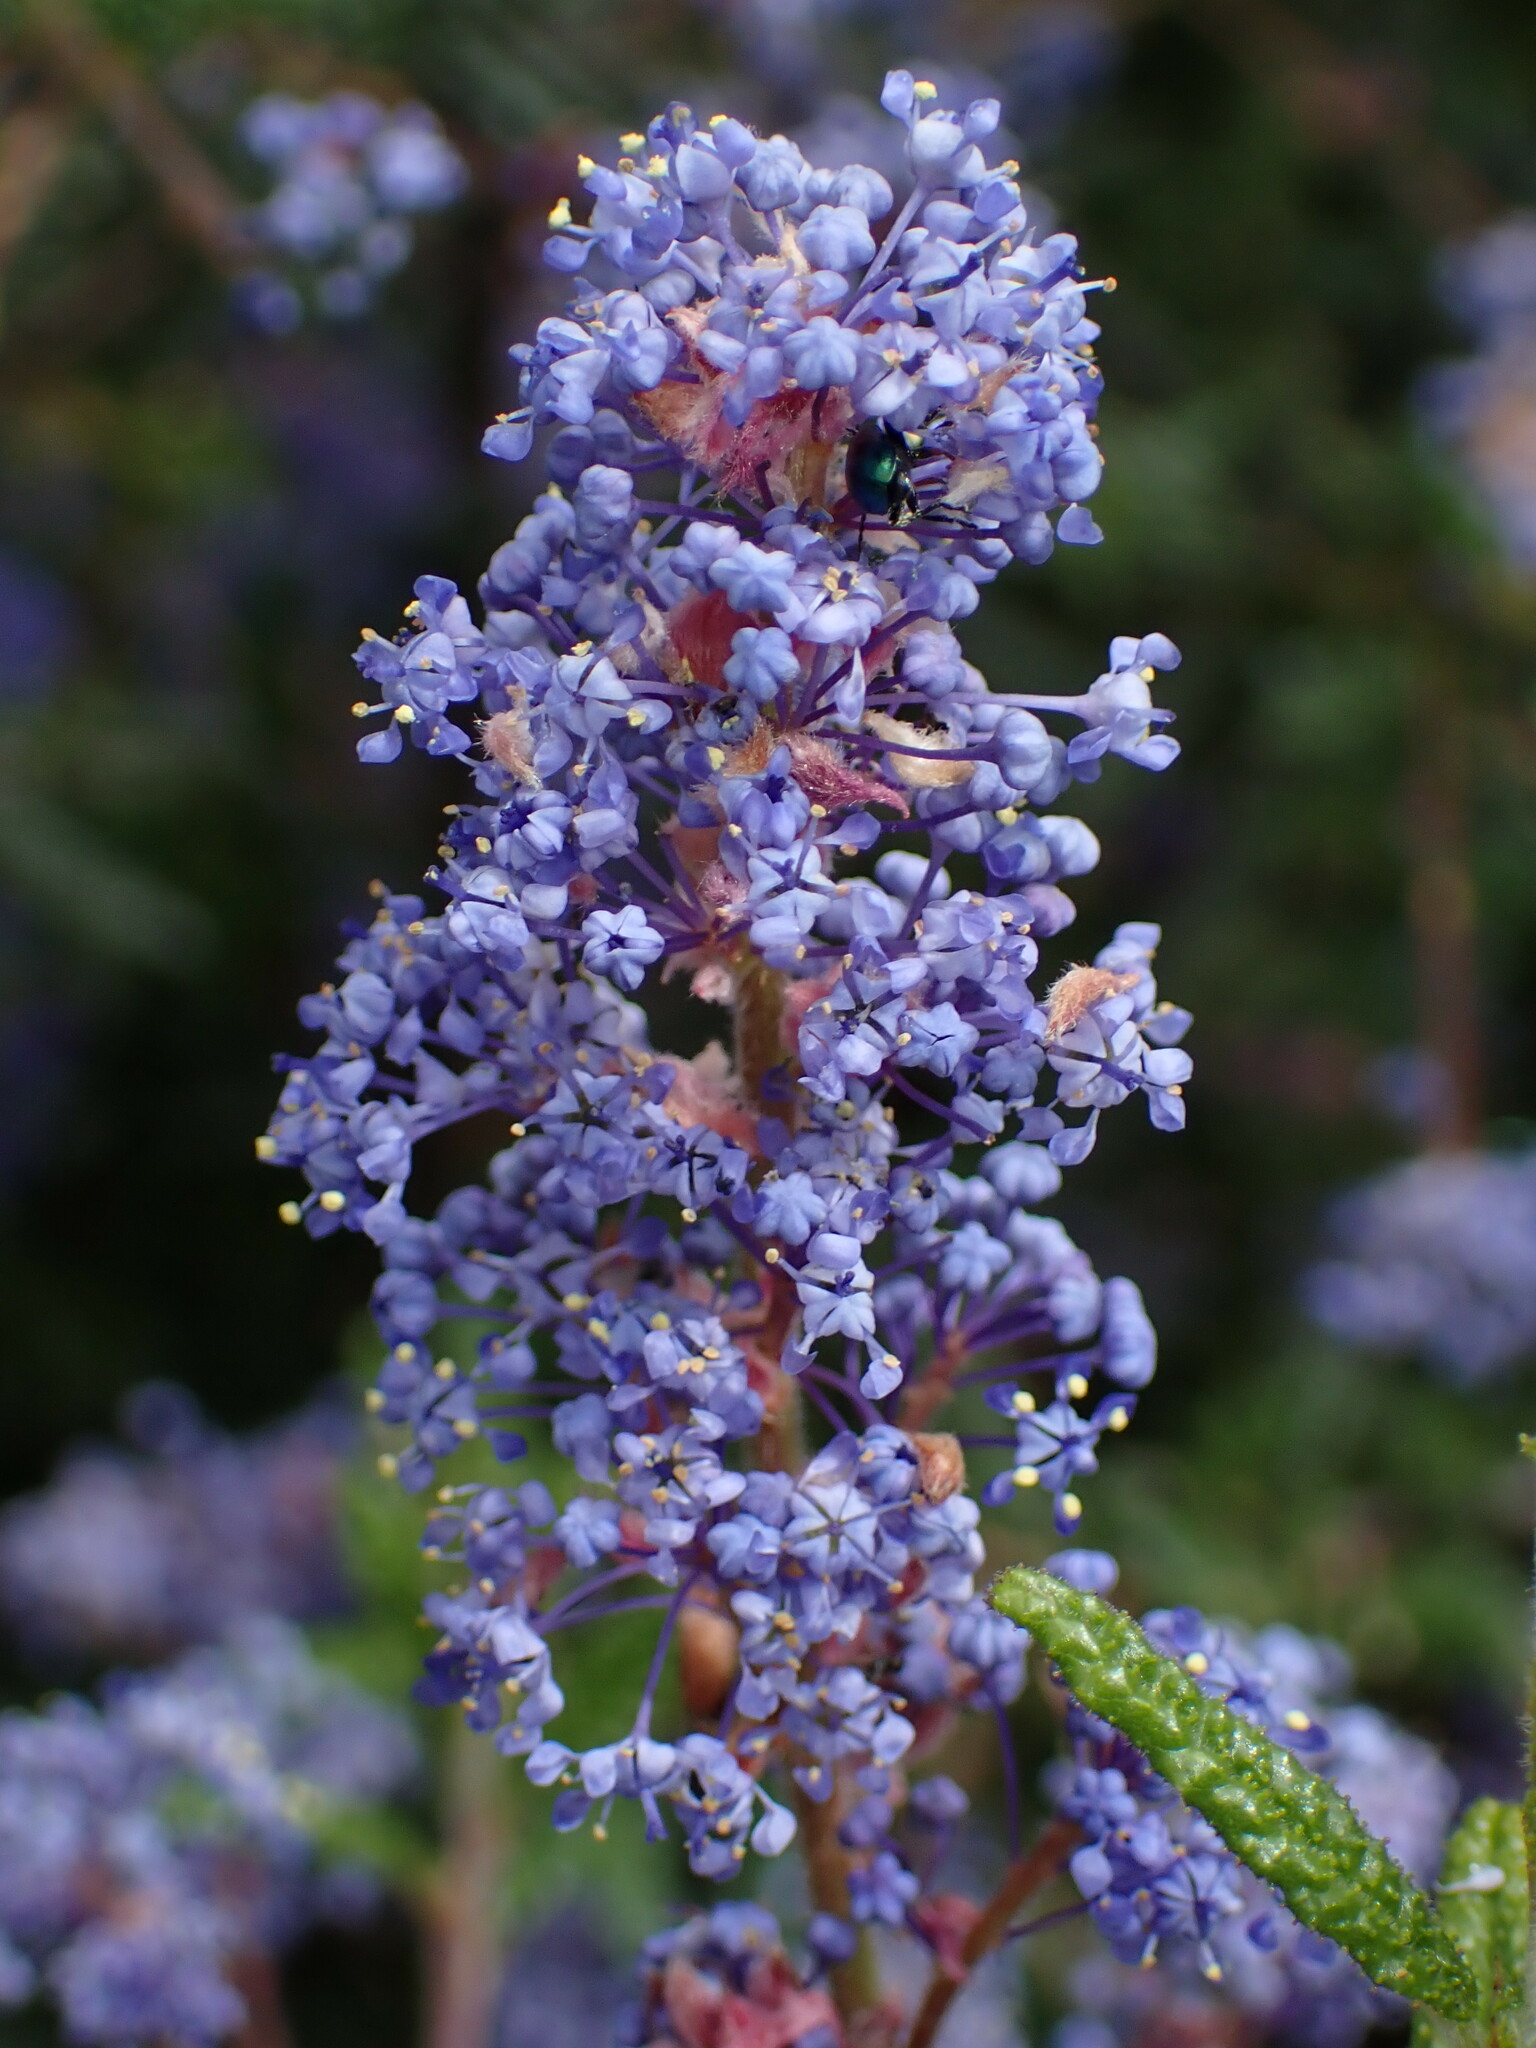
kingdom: Plantae
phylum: Tracheophyta
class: Magnoliopsida
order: Rosales
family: Rhamnaceae
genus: Ceanothus
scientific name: Ceanothus papillosus
